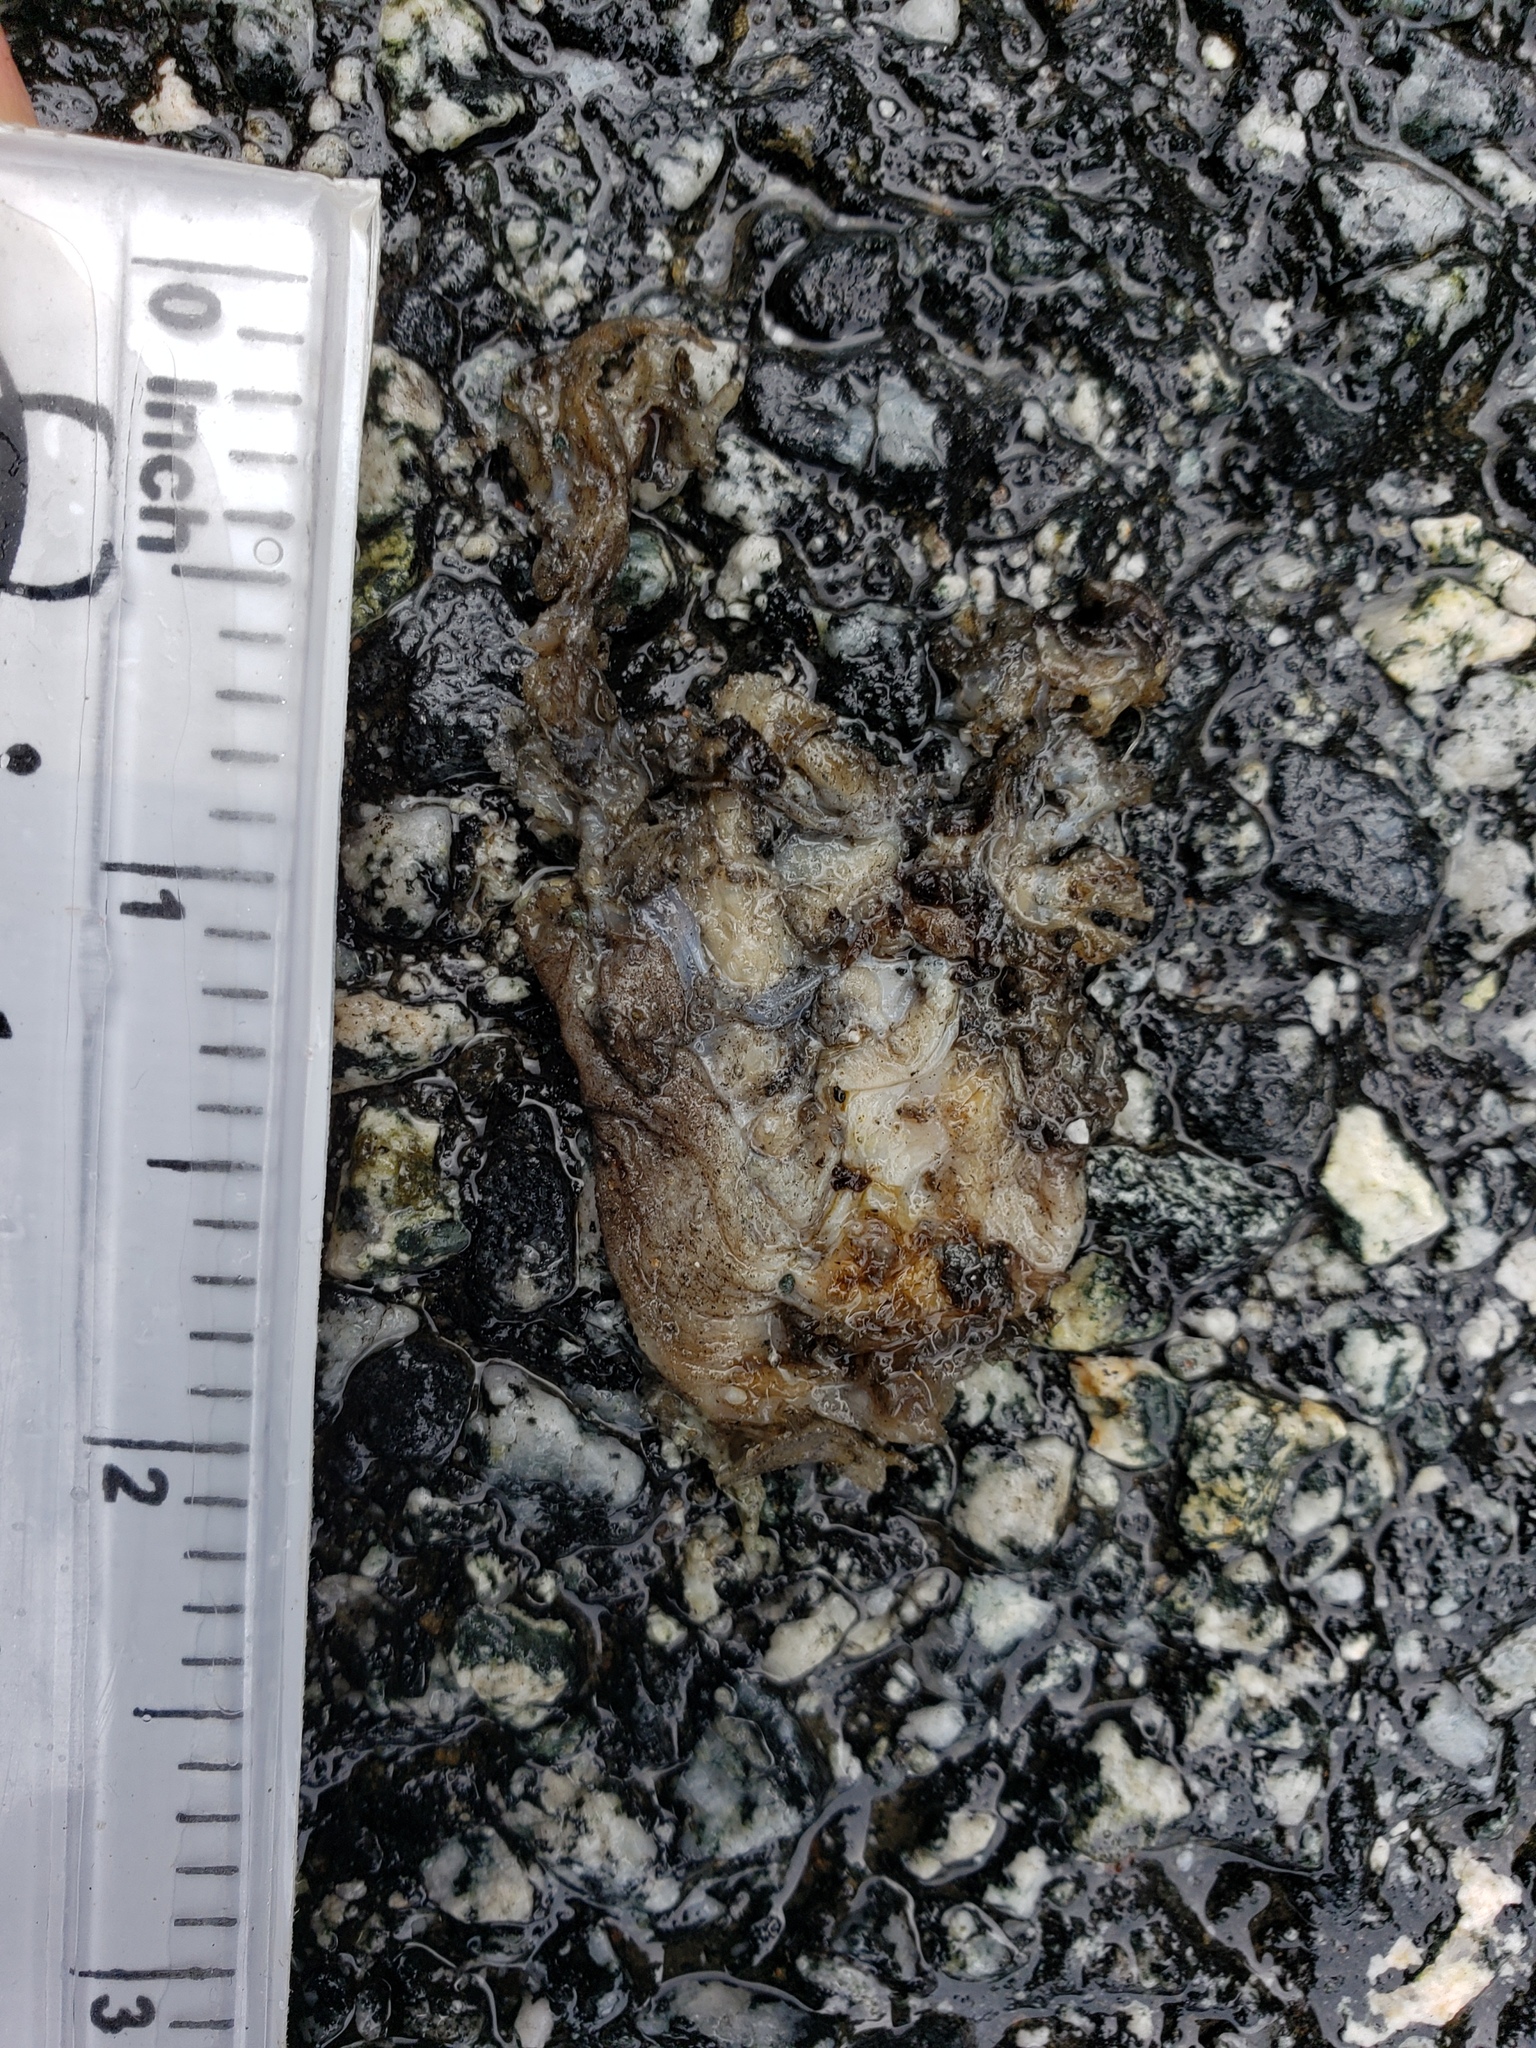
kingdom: Animalia
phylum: Chordata
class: Amphibia
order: Caudata
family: Salamandridae
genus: Taricha
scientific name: Taricha
